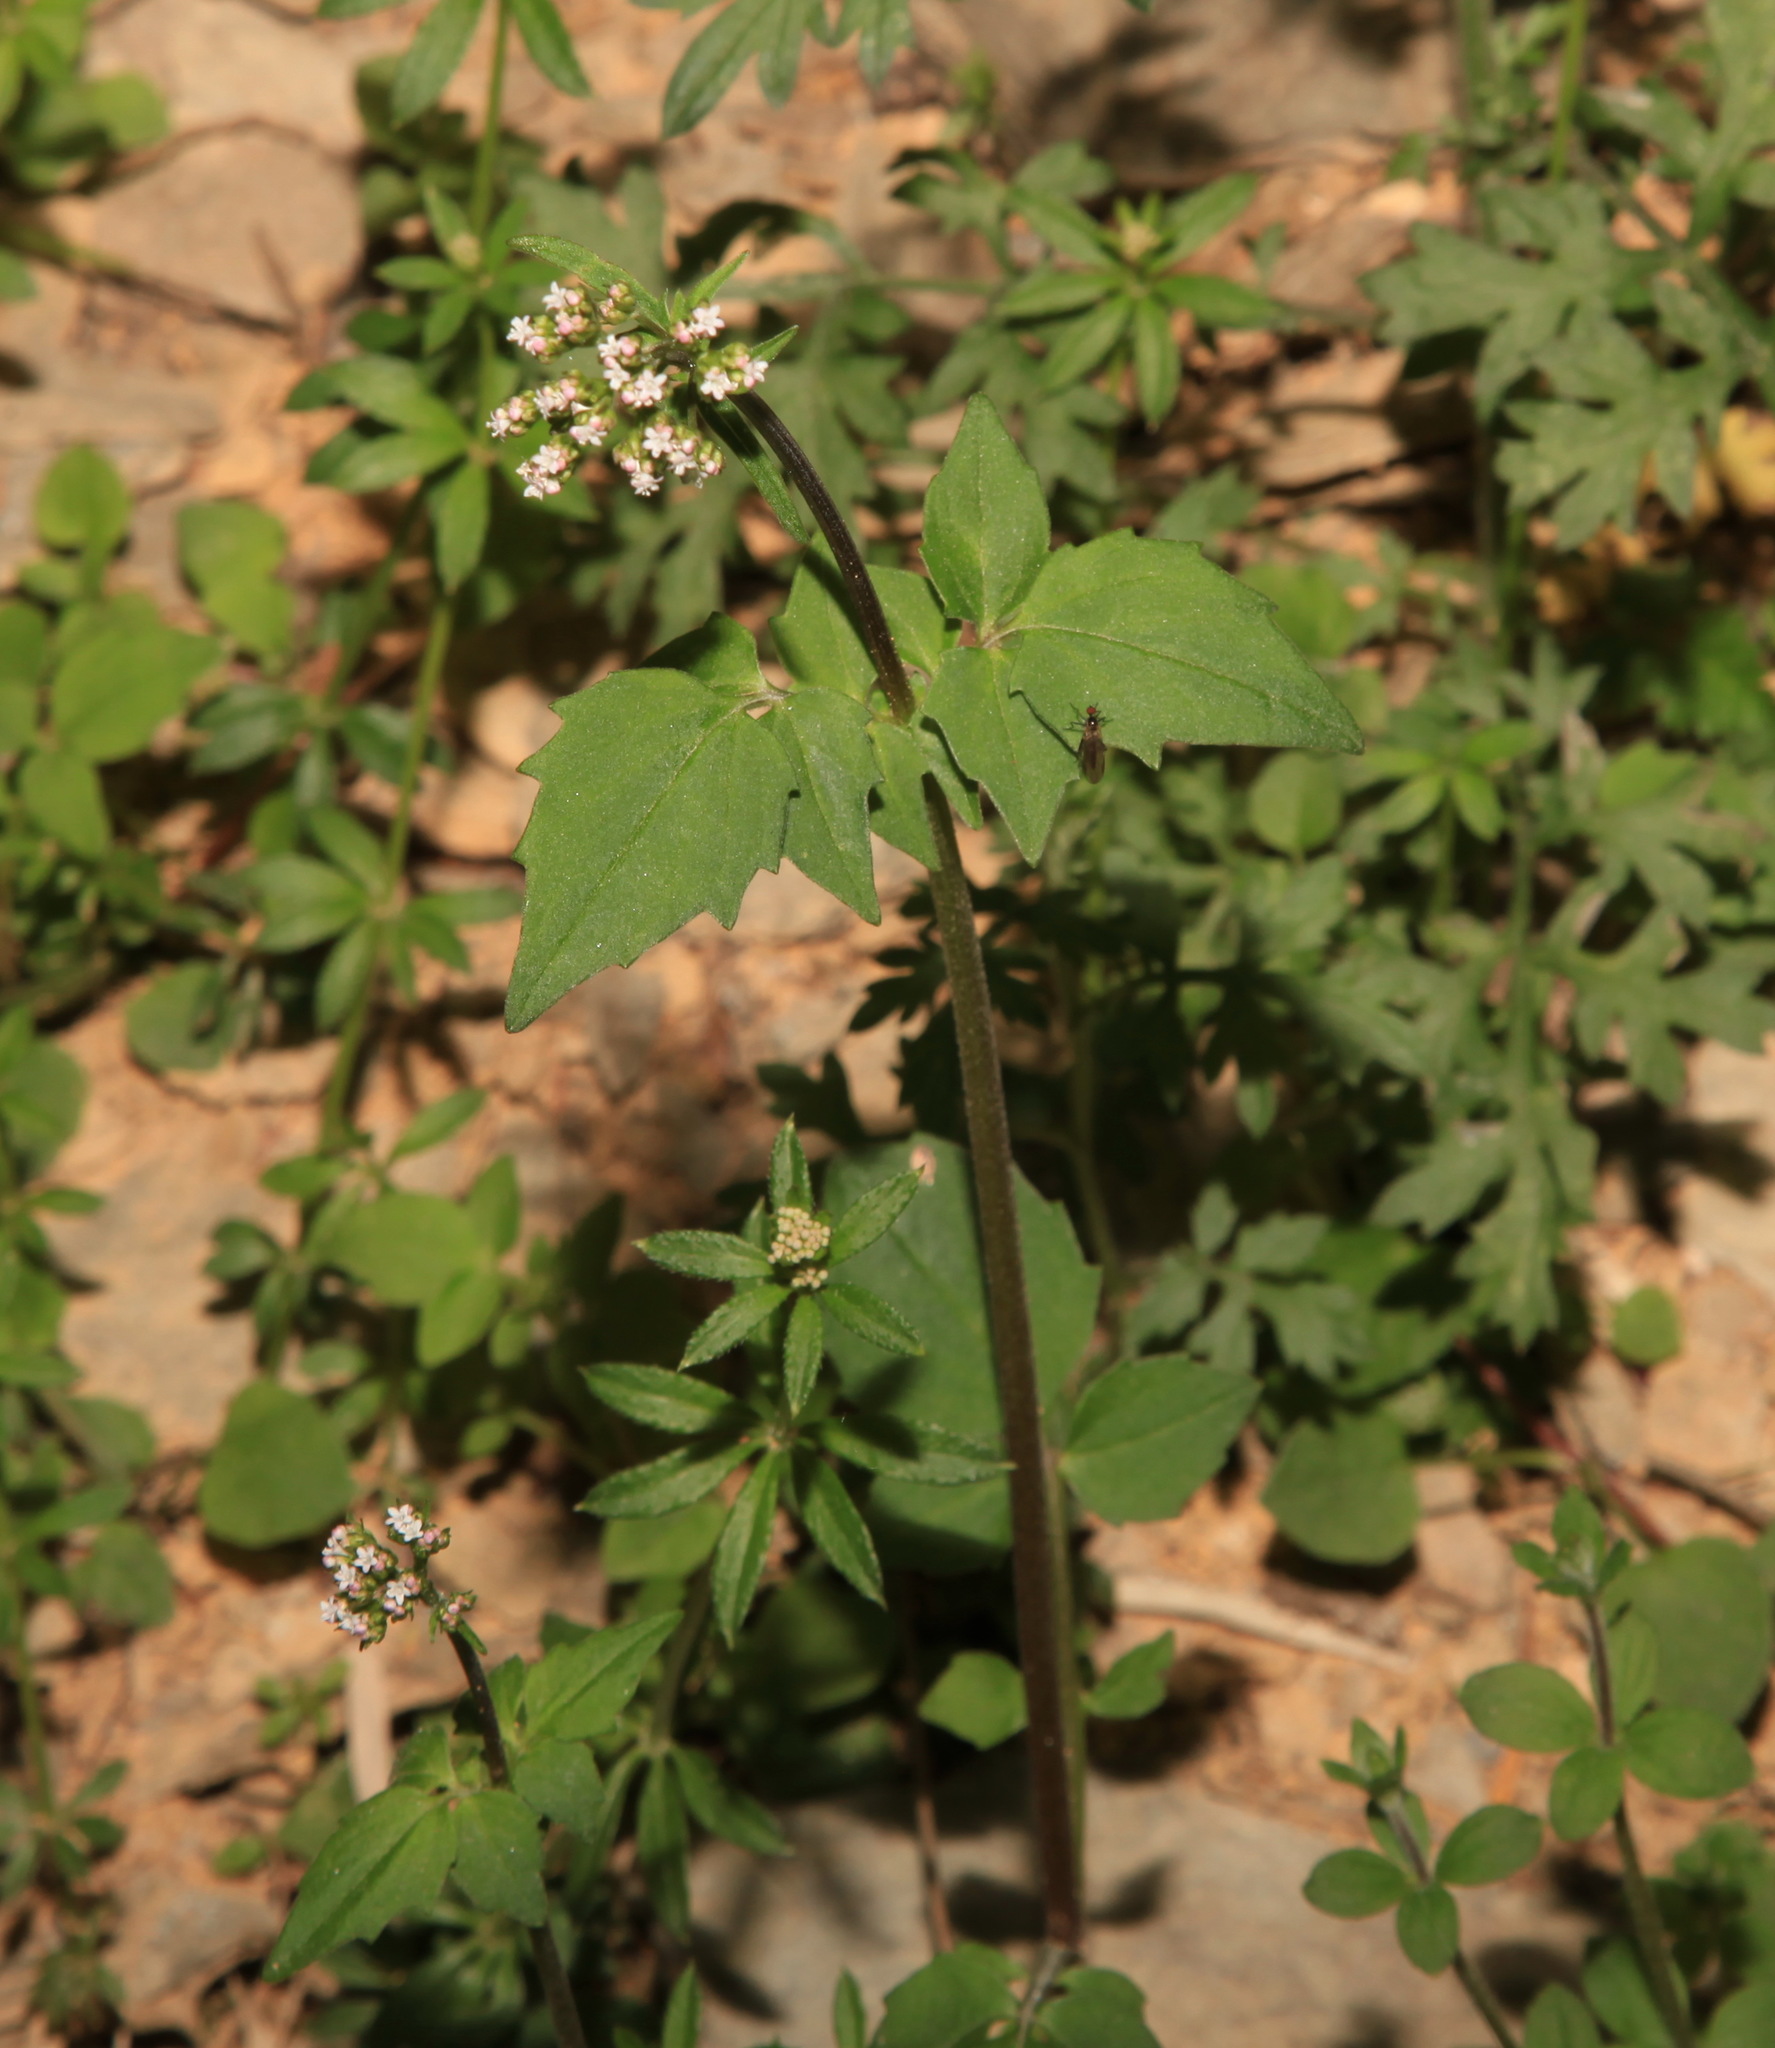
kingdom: Plantae
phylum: Tracheophyta
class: Magnoliopsida
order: Dipsacales
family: Caprifoliaceae
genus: Valeriana
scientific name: Valeriana flaccidissima
